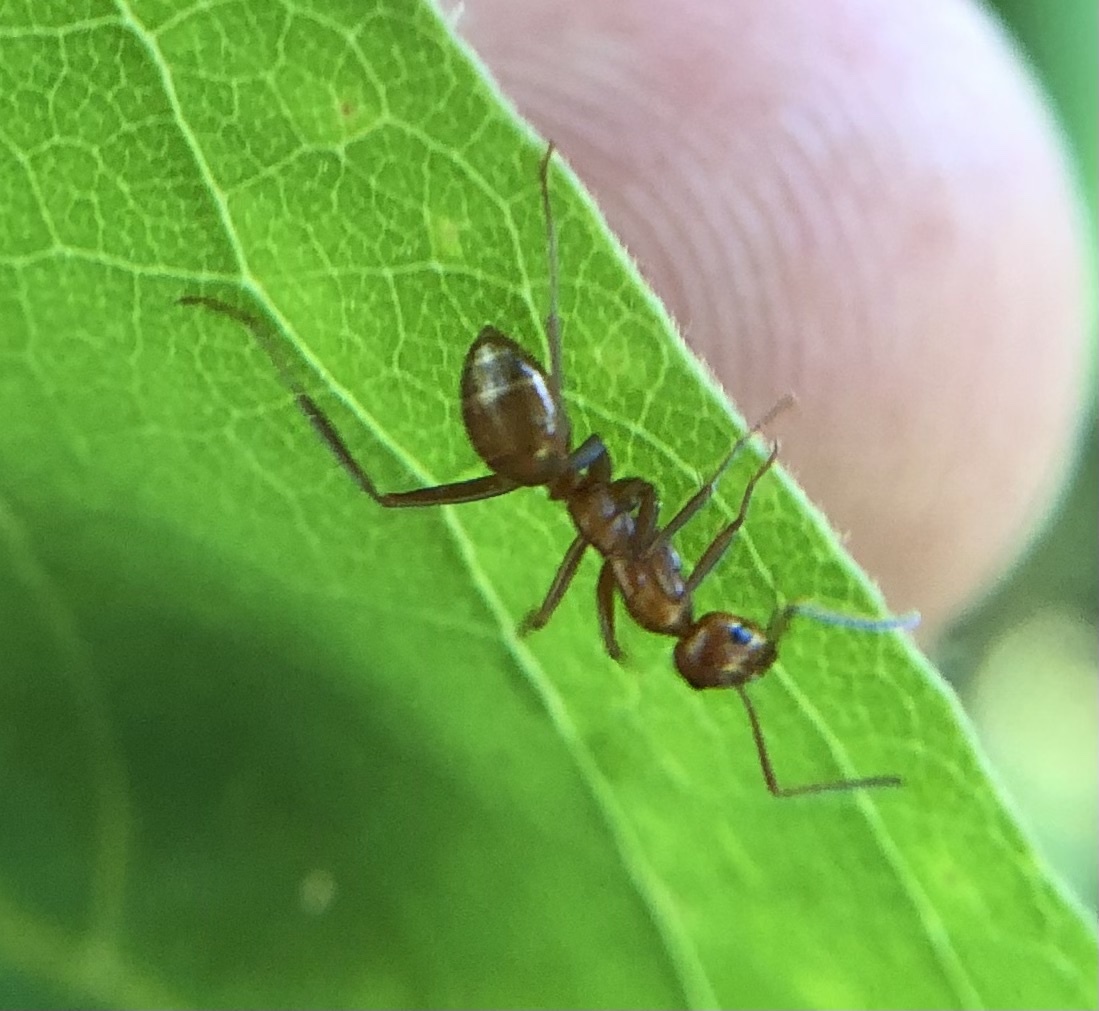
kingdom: Animalia
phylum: Arthropoda
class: Insecta
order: Hymenoptera
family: Formicidae
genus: Formica
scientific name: Formica
